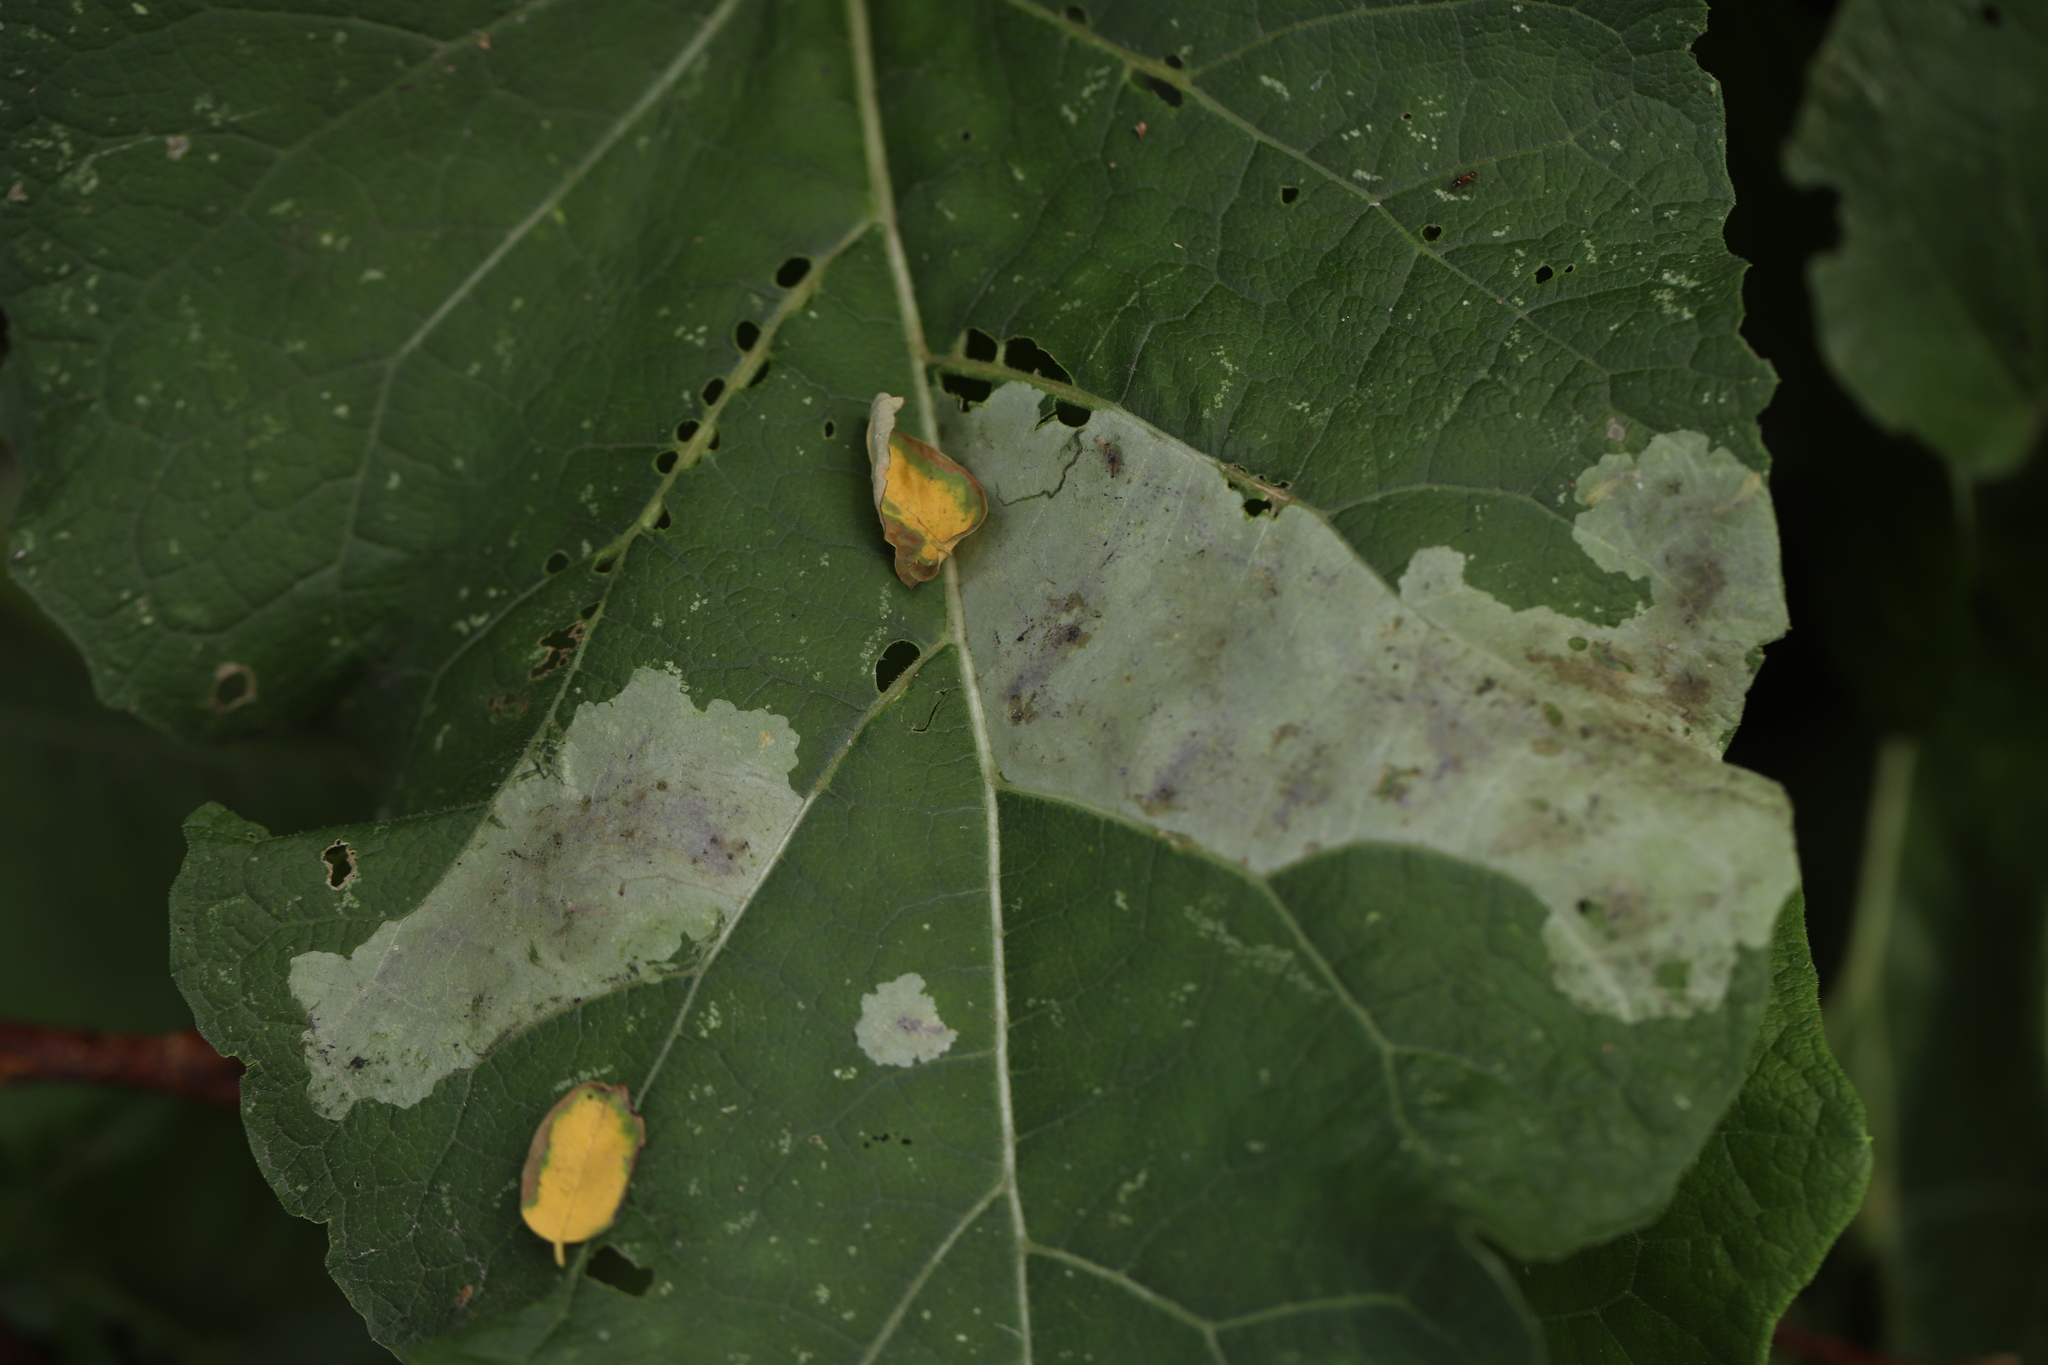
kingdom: Animalia
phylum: Arthropoda
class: Insecta
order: Diptera
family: Agromyzidae
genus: Calycomyza
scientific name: Calycomyza flavinotum
